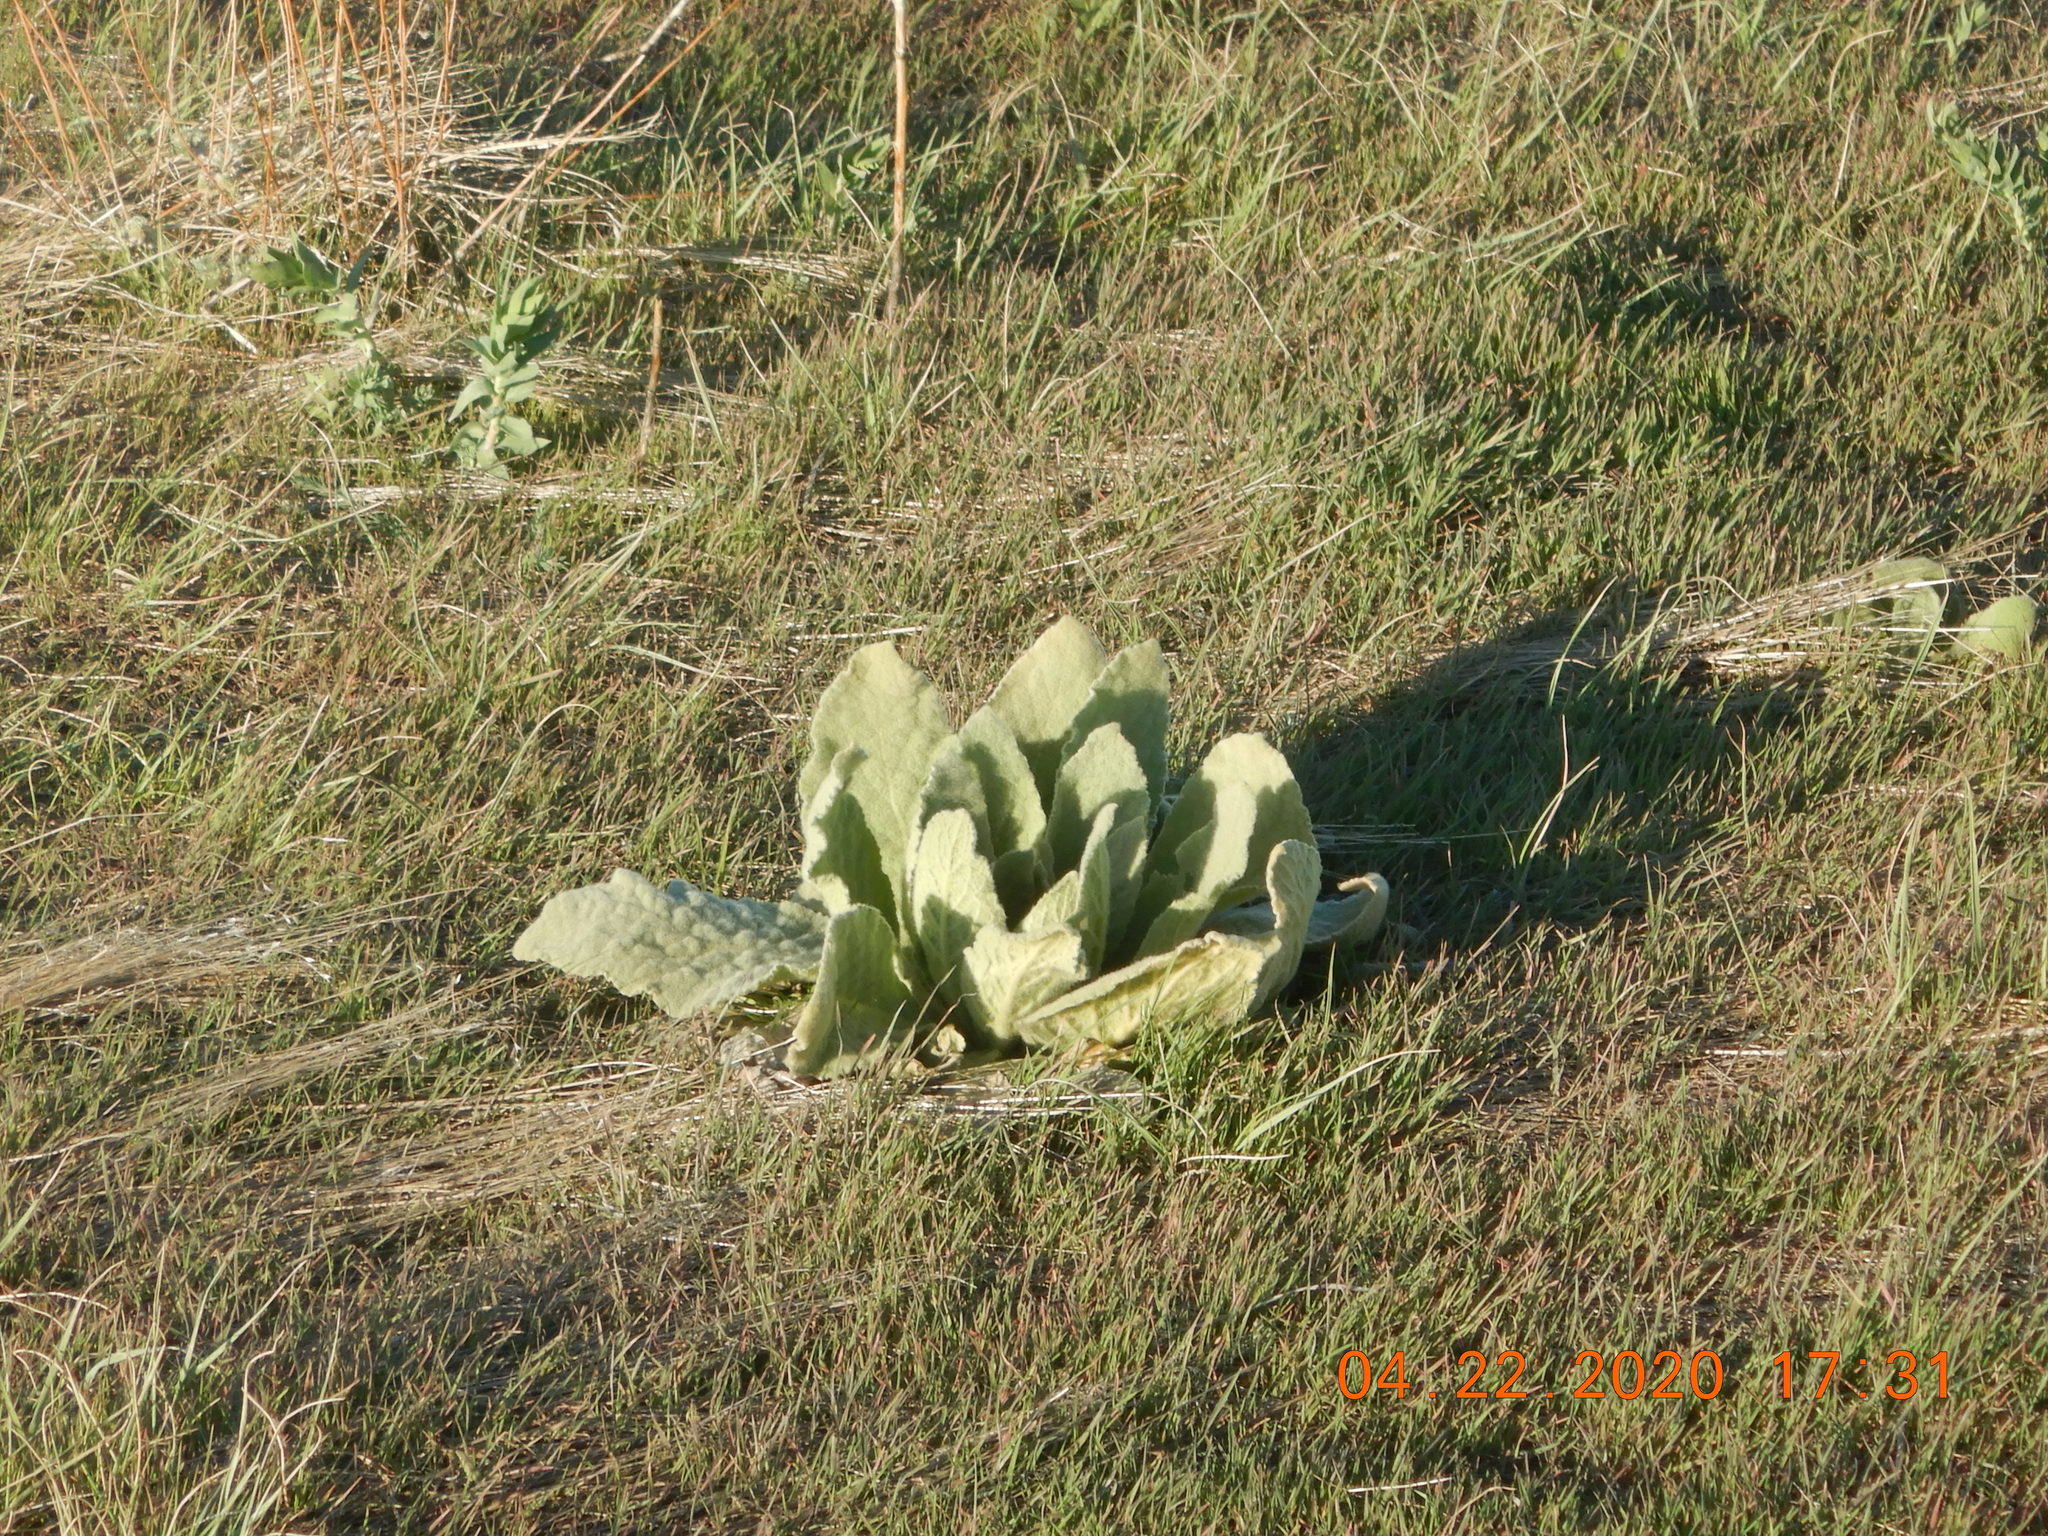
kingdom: Plantae
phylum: Tracheophyta
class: Magnoliopsida
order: Lamiales
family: Scrophulariaceae
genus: Verbascum
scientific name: Verbascum thapsus
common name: Common mullein
